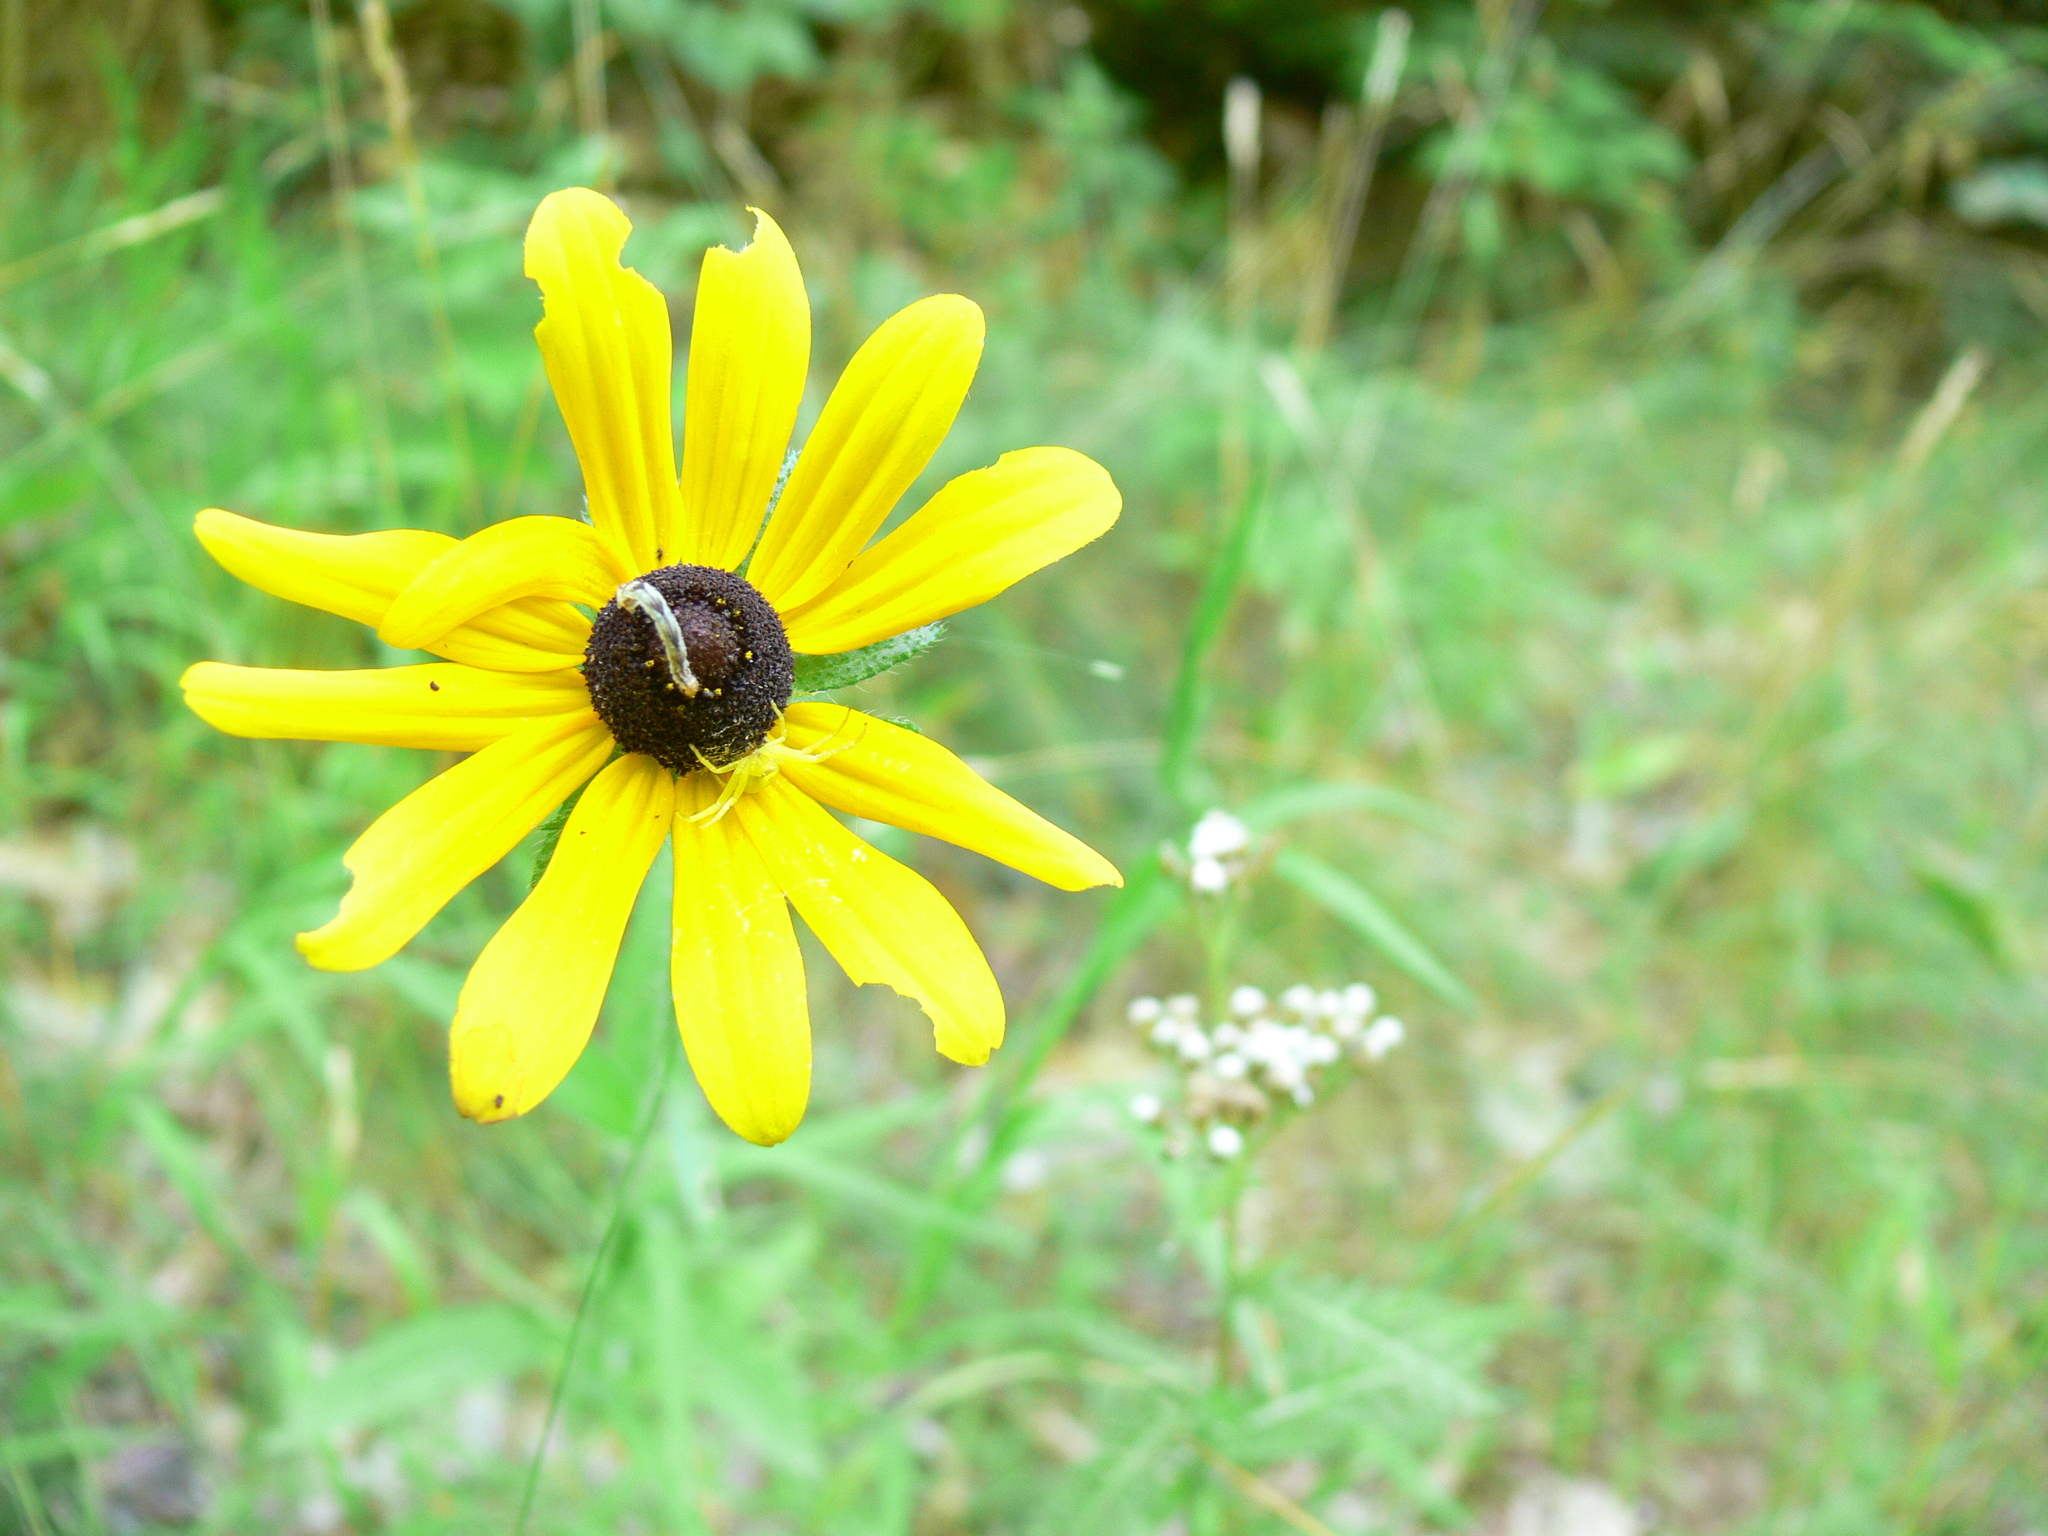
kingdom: Plantae
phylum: Tracheophyta
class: Magnoliopsida
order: Asterales
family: Asteraceae
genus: Rudbeckia
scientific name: Rudbeckia hirta
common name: Black-eyed-susan
